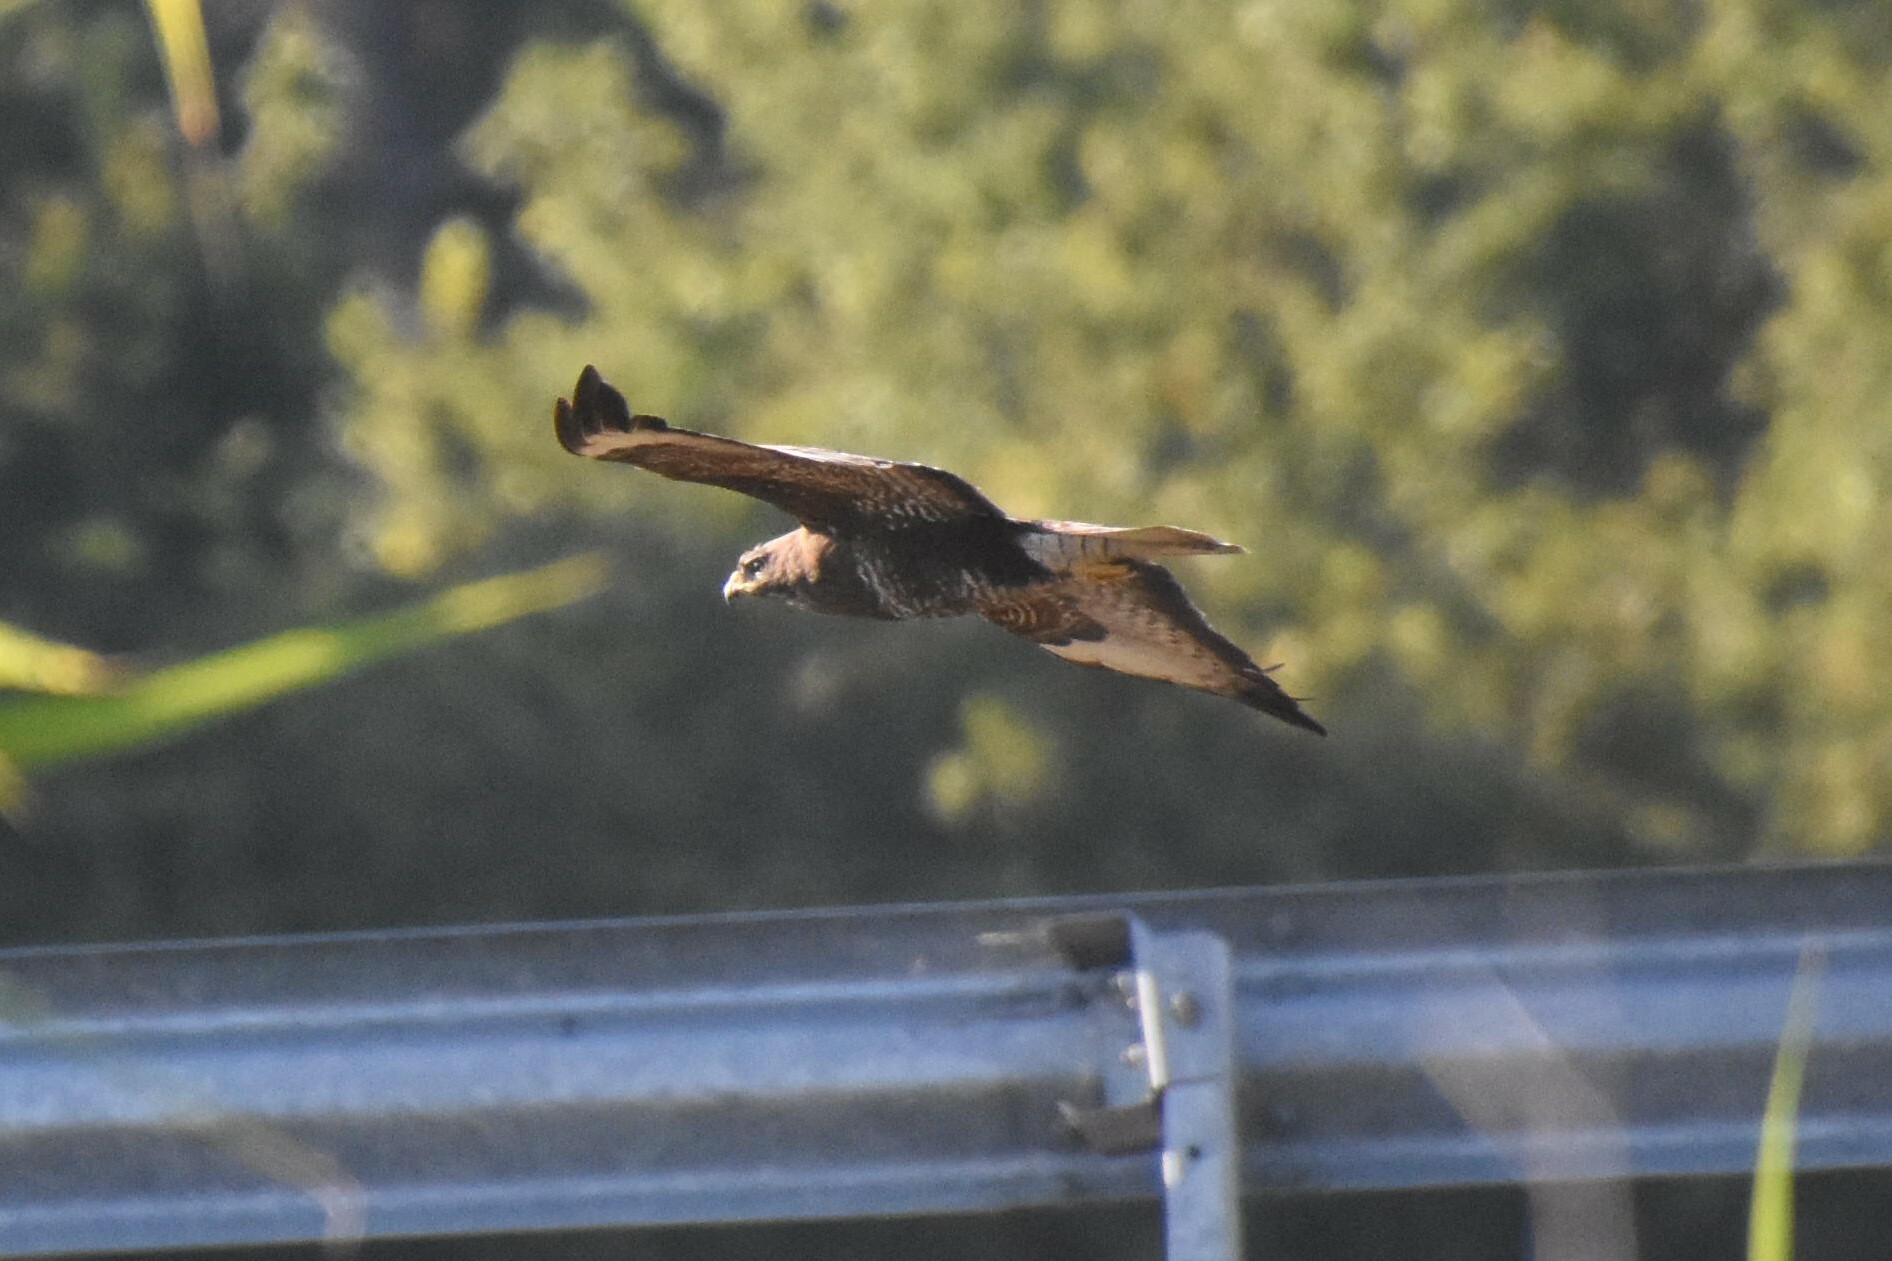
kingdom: Animalia
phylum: Chordata
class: Aves
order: Accipitriformes
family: Accipitridae
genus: Buteo
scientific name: Buteo buteo
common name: Common buzzard
